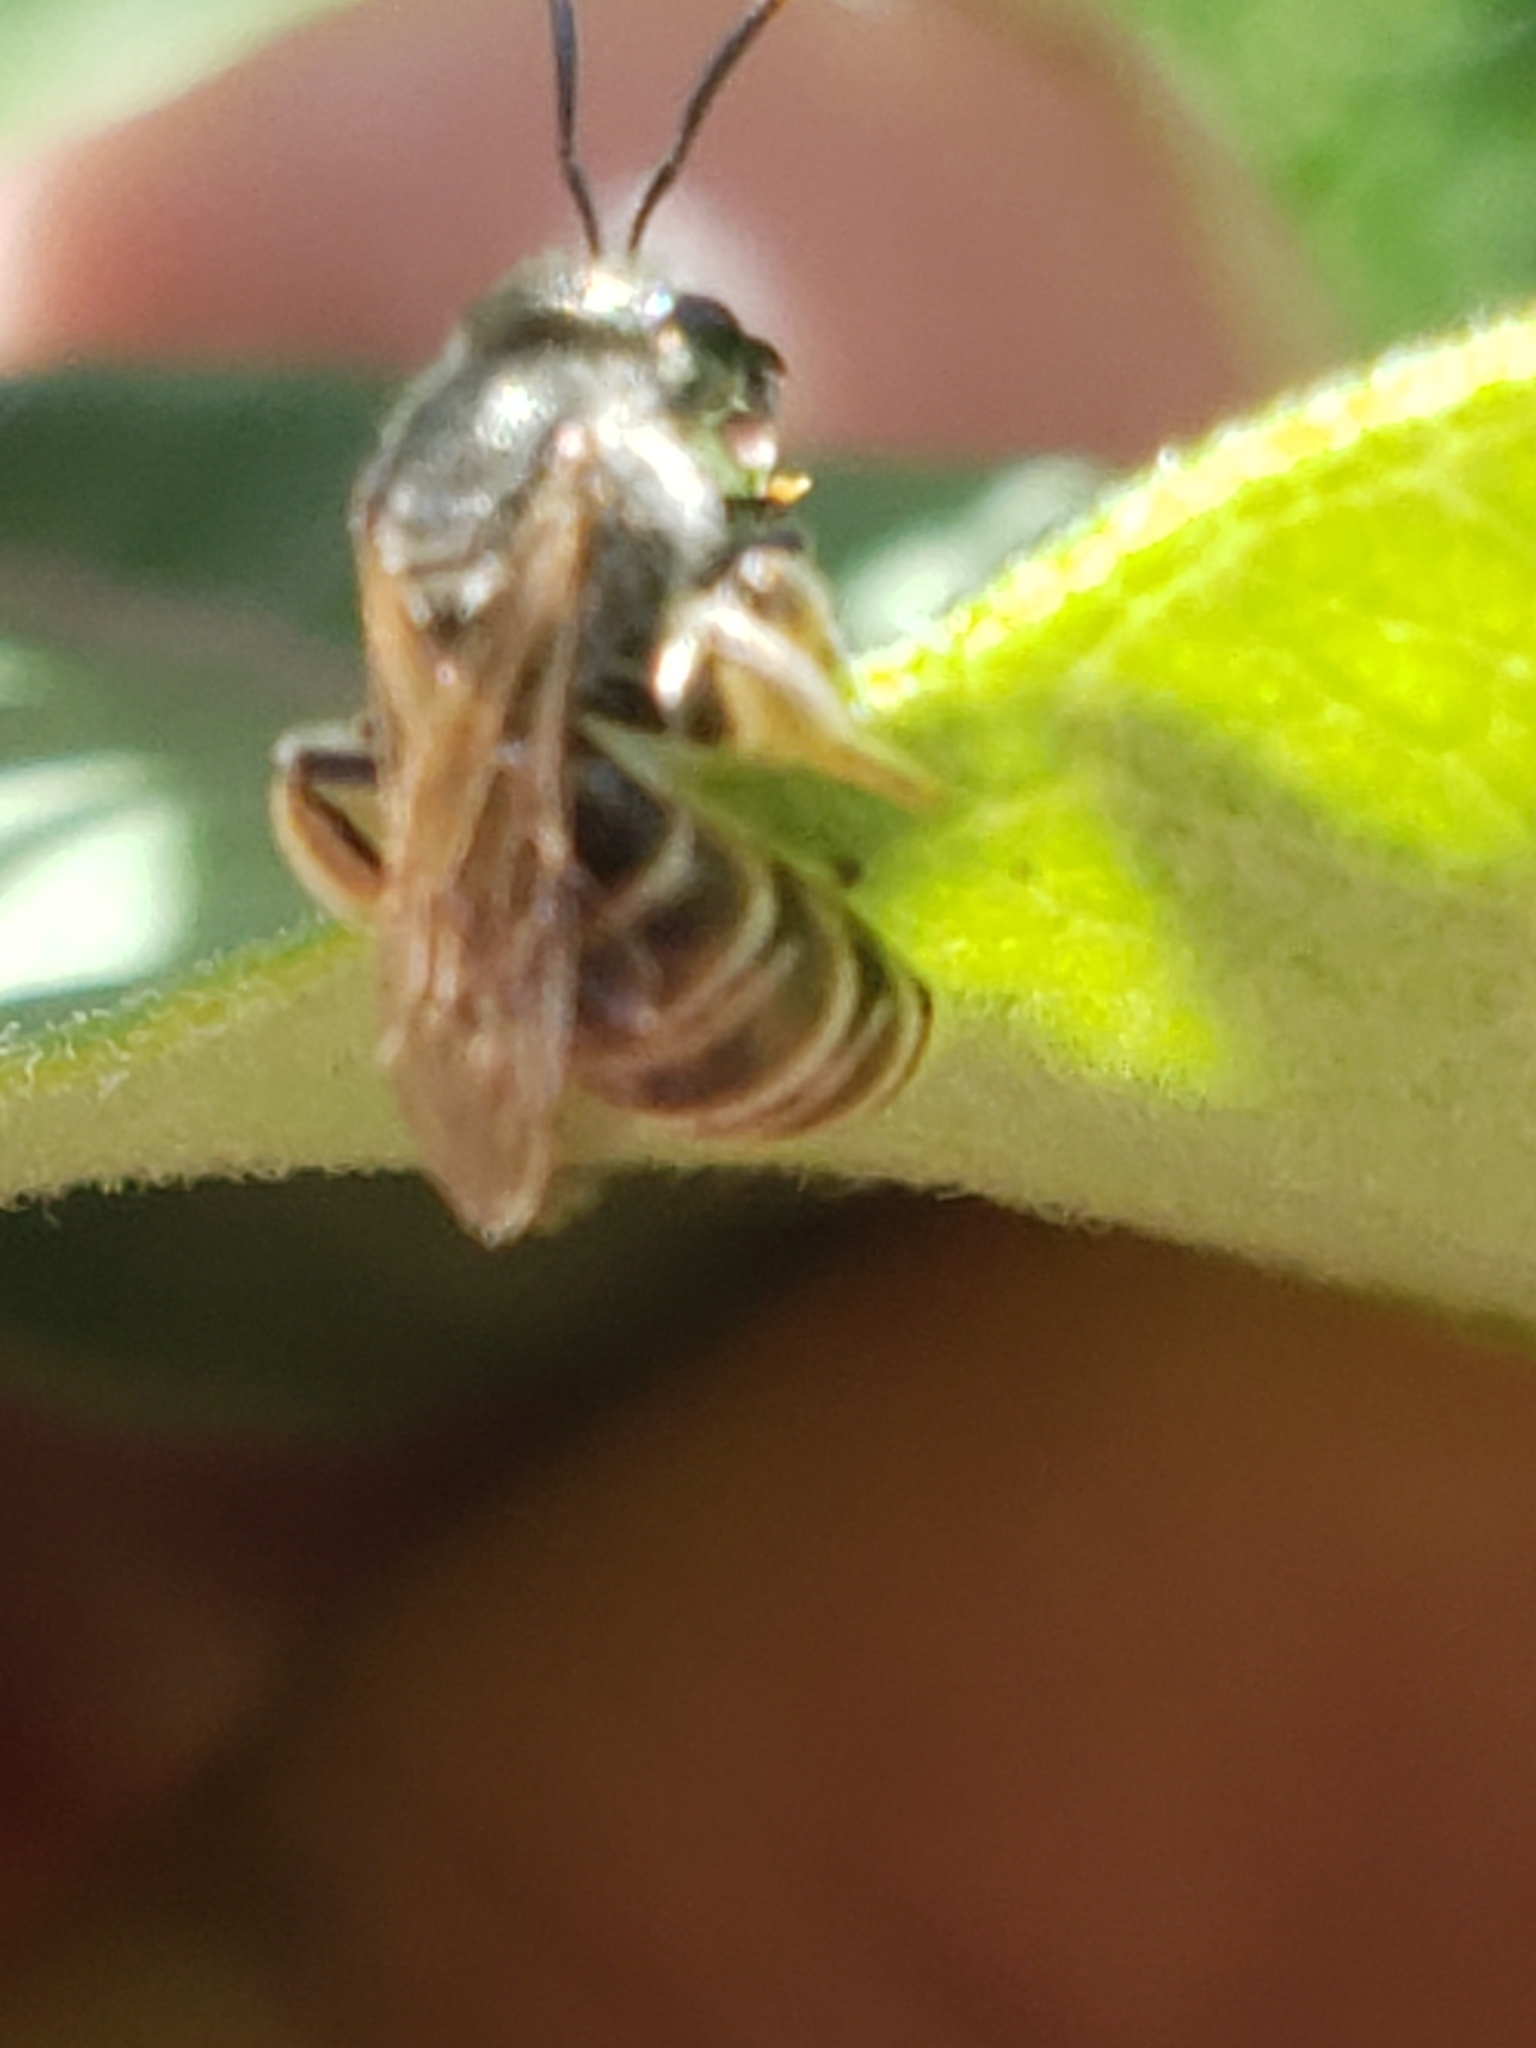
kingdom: Animalia
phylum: Arthropoda
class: Insecta
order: Hymenoptera
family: Halictidae
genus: Halictus
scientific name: Halictus confusus
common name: Southern bronze furrow bee
